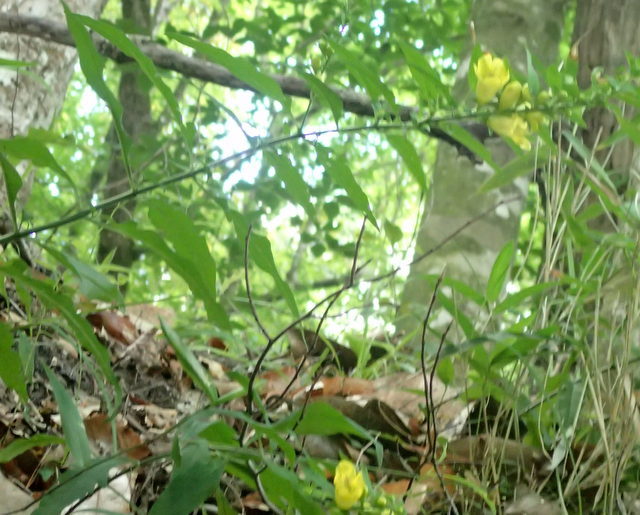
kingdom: Plantae
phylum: Tracheophyta
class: Magnoliopsida
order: Lamiales
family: Orobanchaceae
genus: Aureolaria
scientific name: Aureolaria virginica
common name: Downy false foxglove
